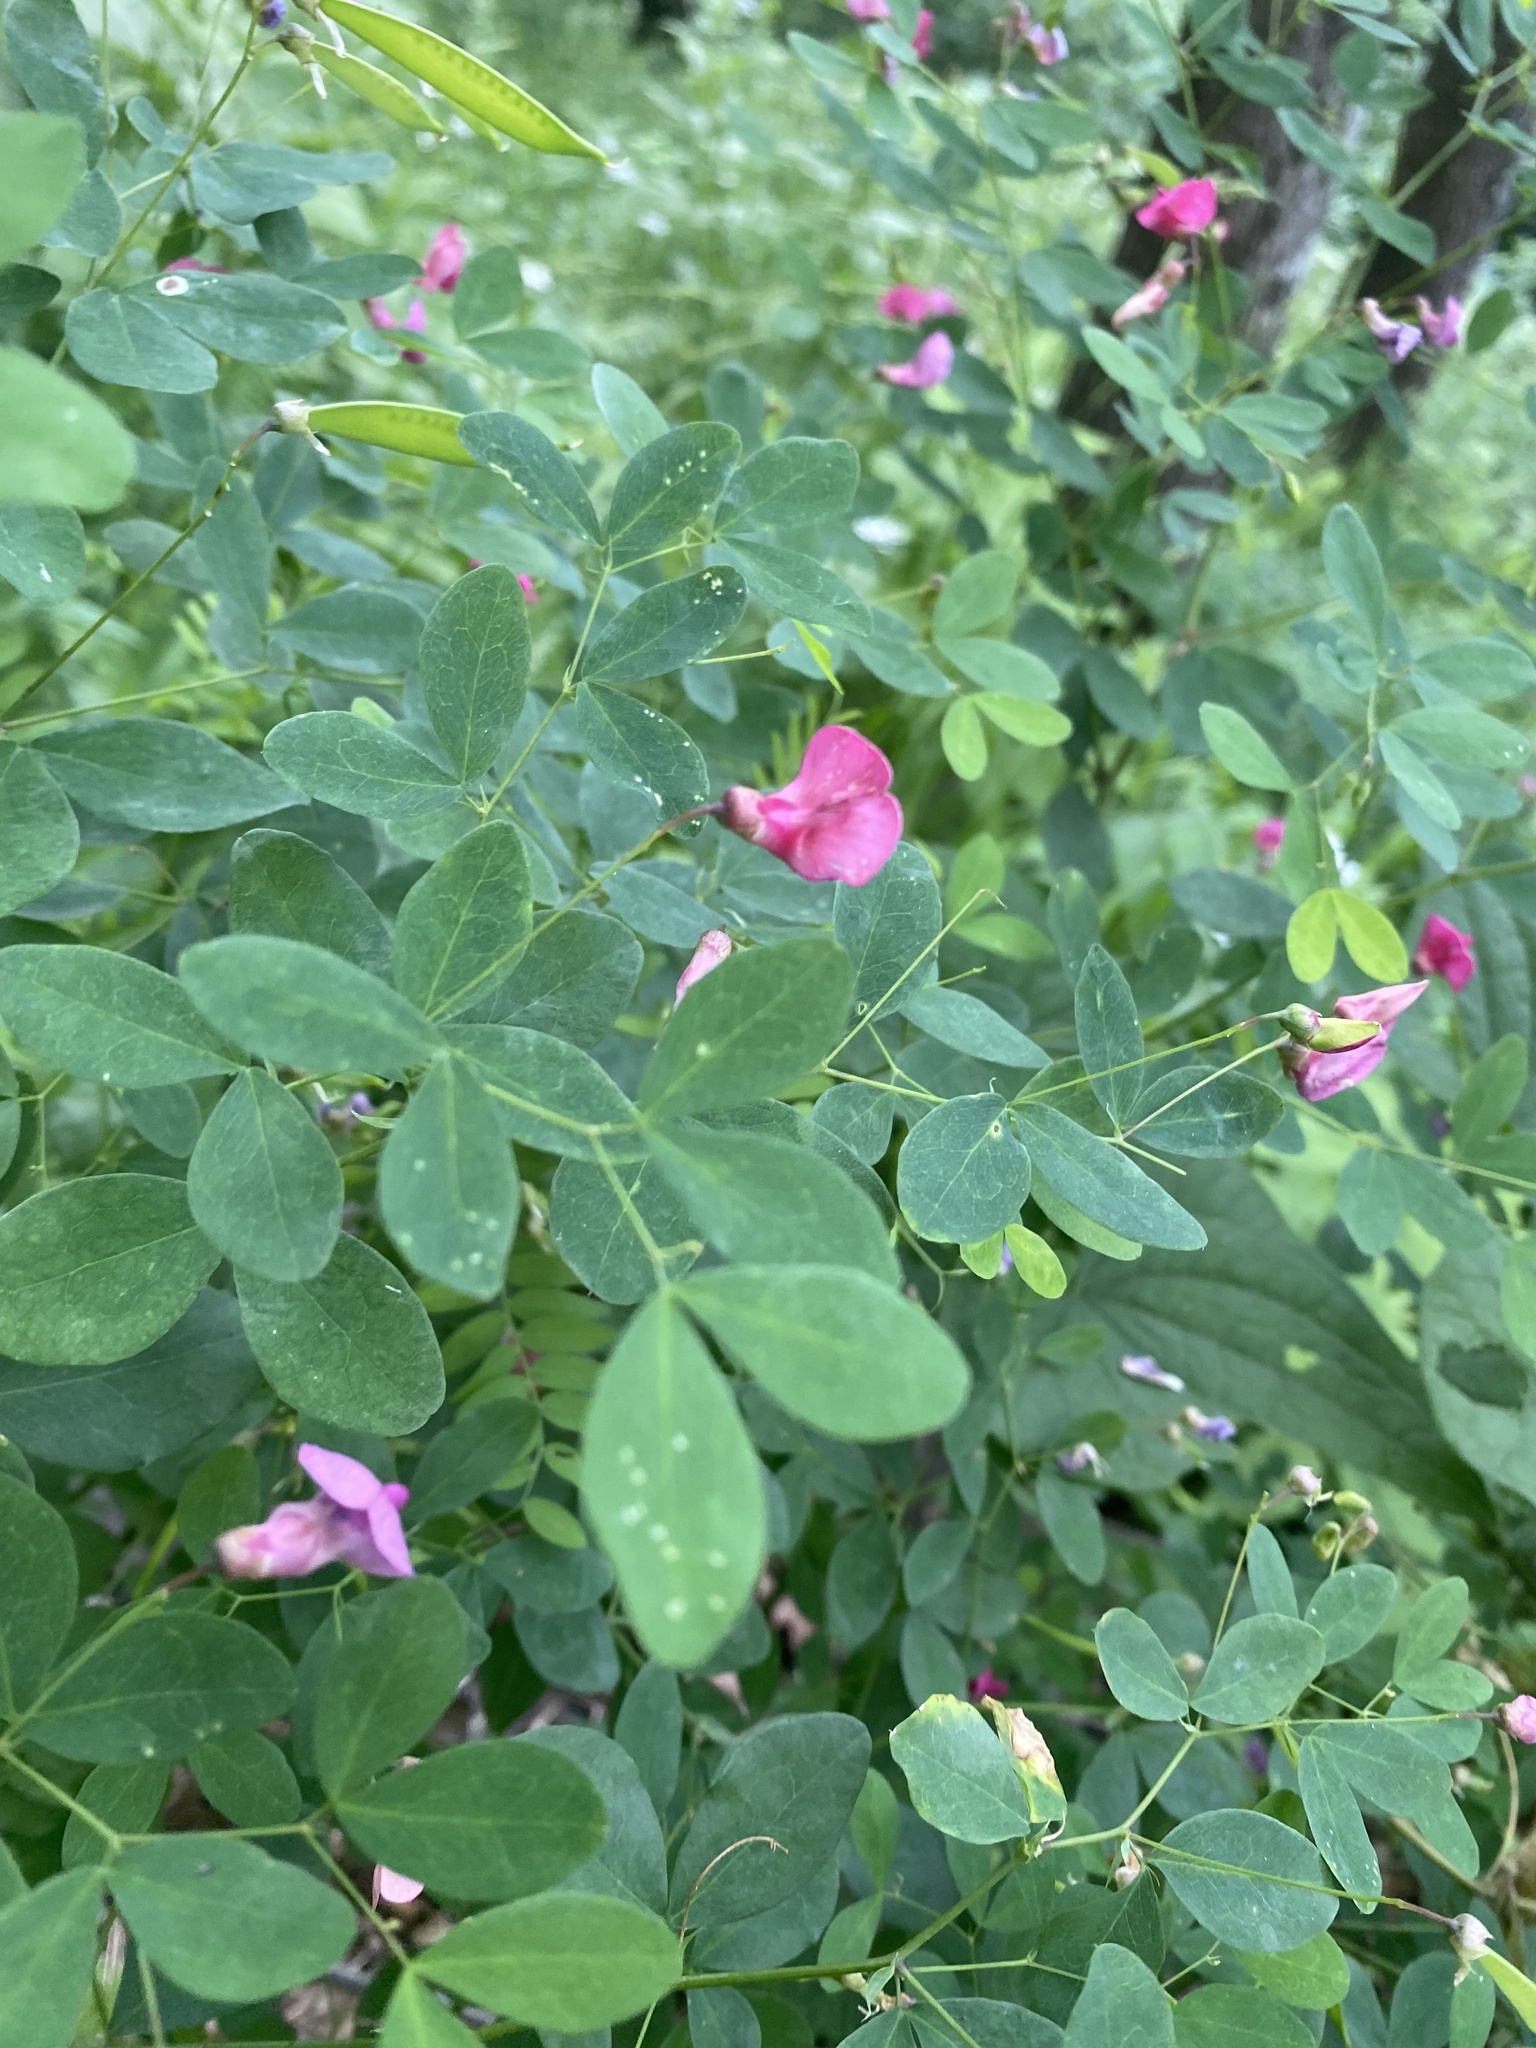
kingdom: Plantae
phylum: Tracheophyta
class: Magnoliopsida
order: Fabales
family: Fabaceae
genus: Lathyrus
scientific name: Lathyrus roseus
